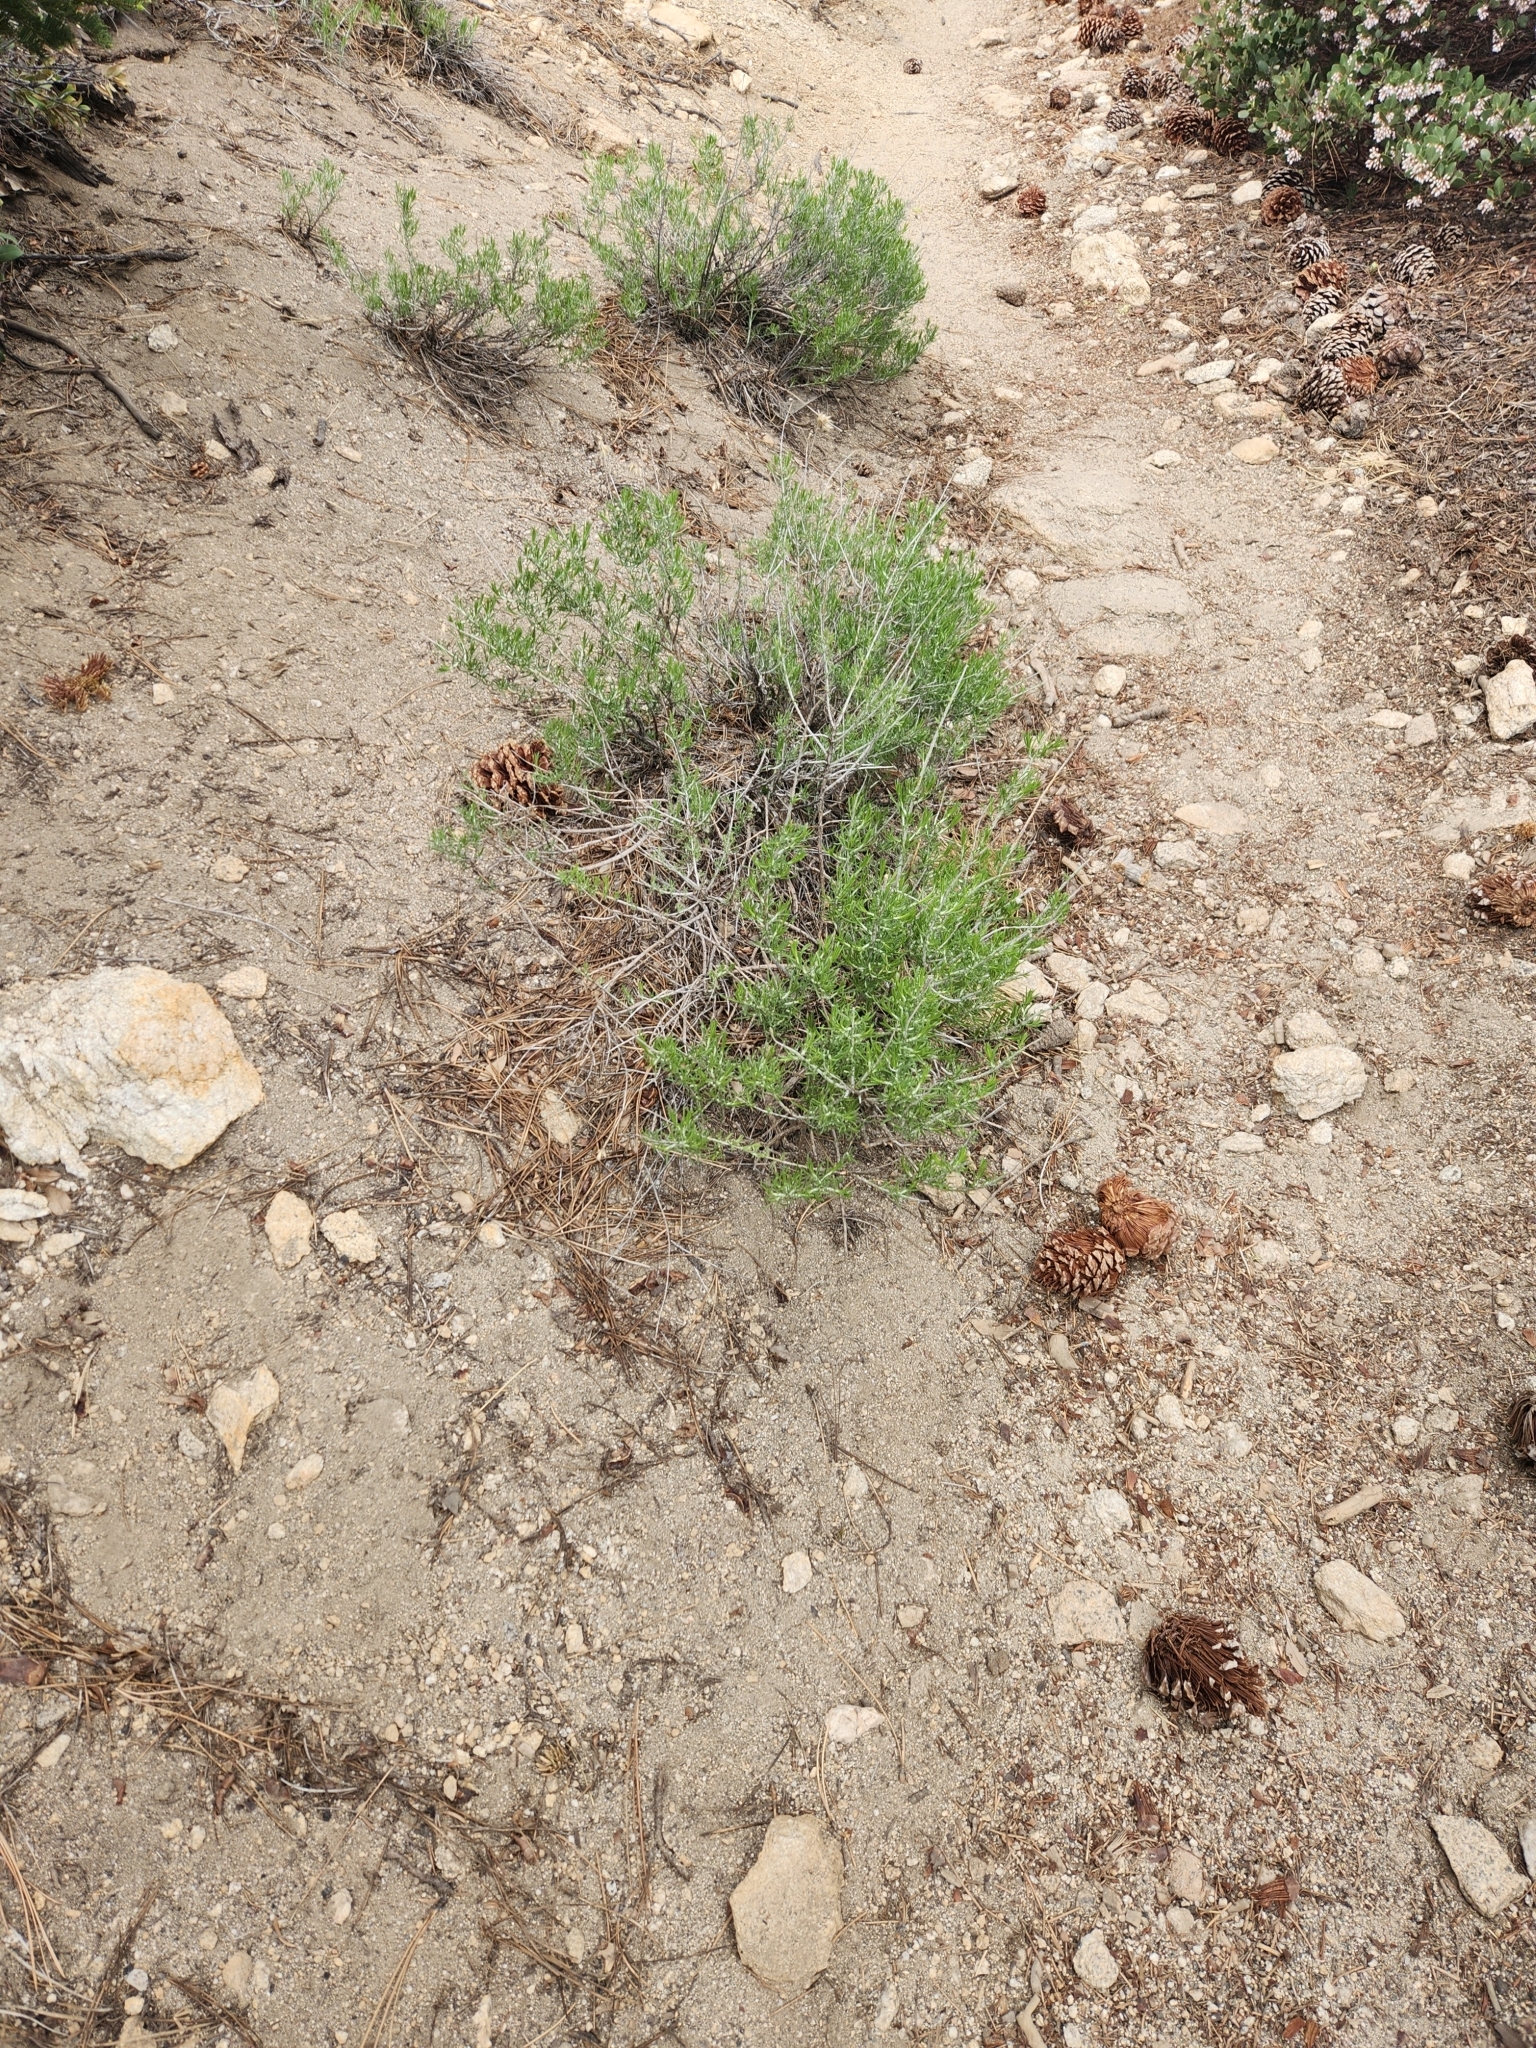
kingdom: Plantae
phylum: Tracheophyta
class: Magnoliopsida
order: Ericales
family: Polemoniaceae
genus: Linanthus
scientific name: Linanthus pungens
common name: Granite prickly phlox
